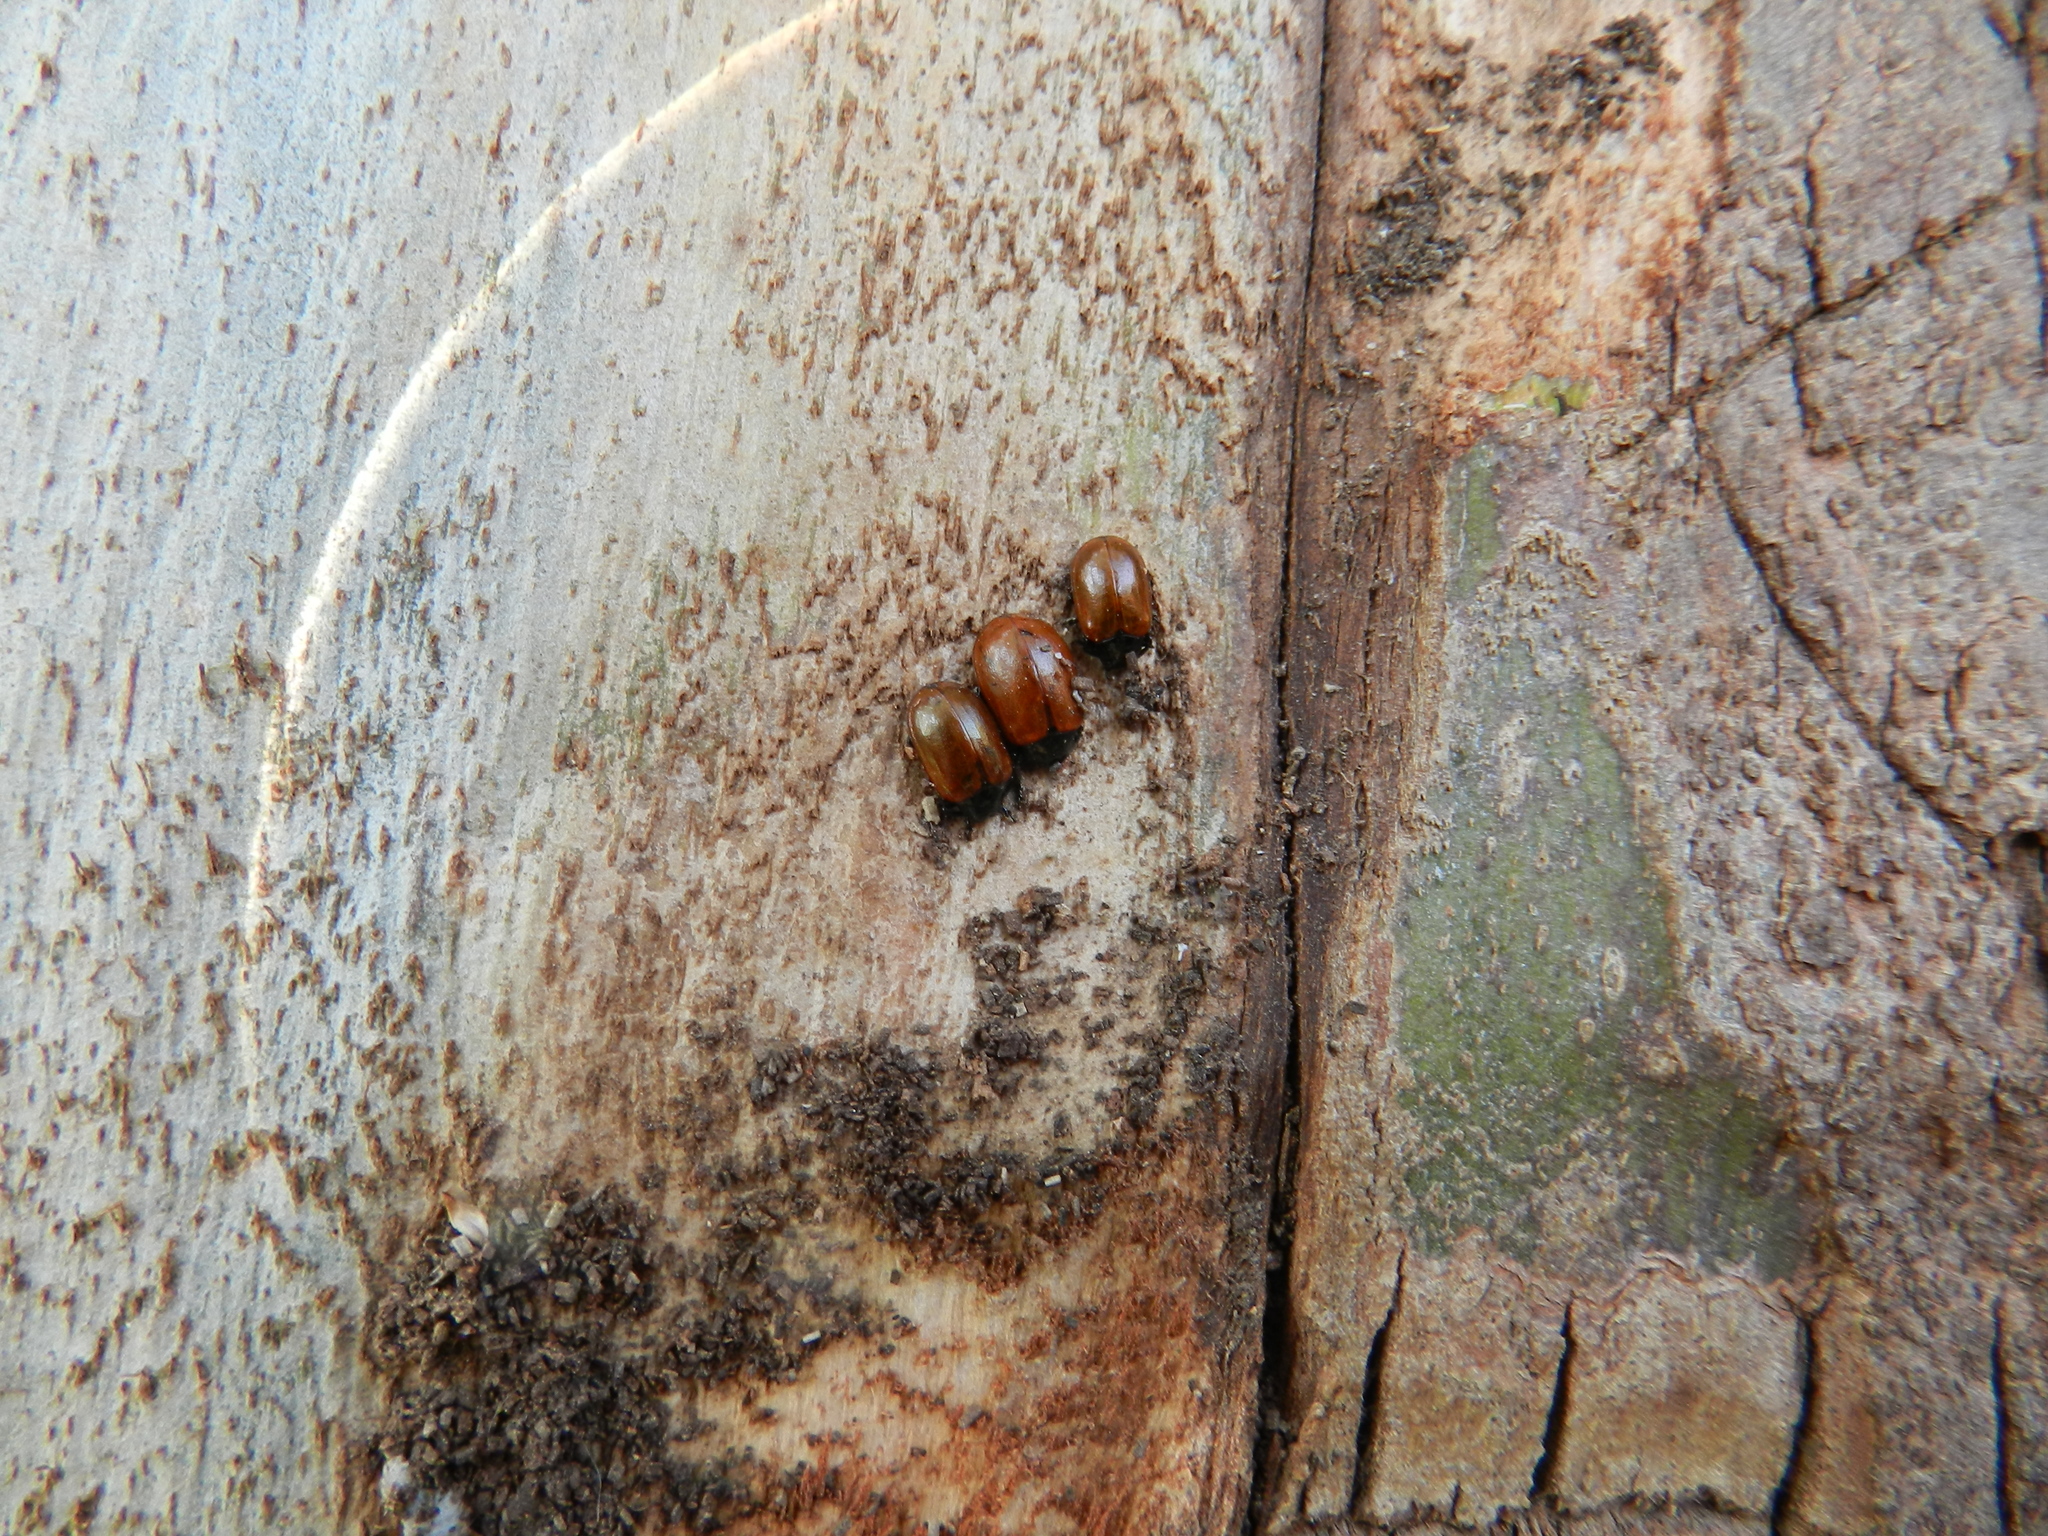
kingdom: Animalia
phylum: Arthropoda
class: Insecta
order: Coleoptera
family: Chrysomelidae
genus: Plagiodera
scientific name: Plagiodera
